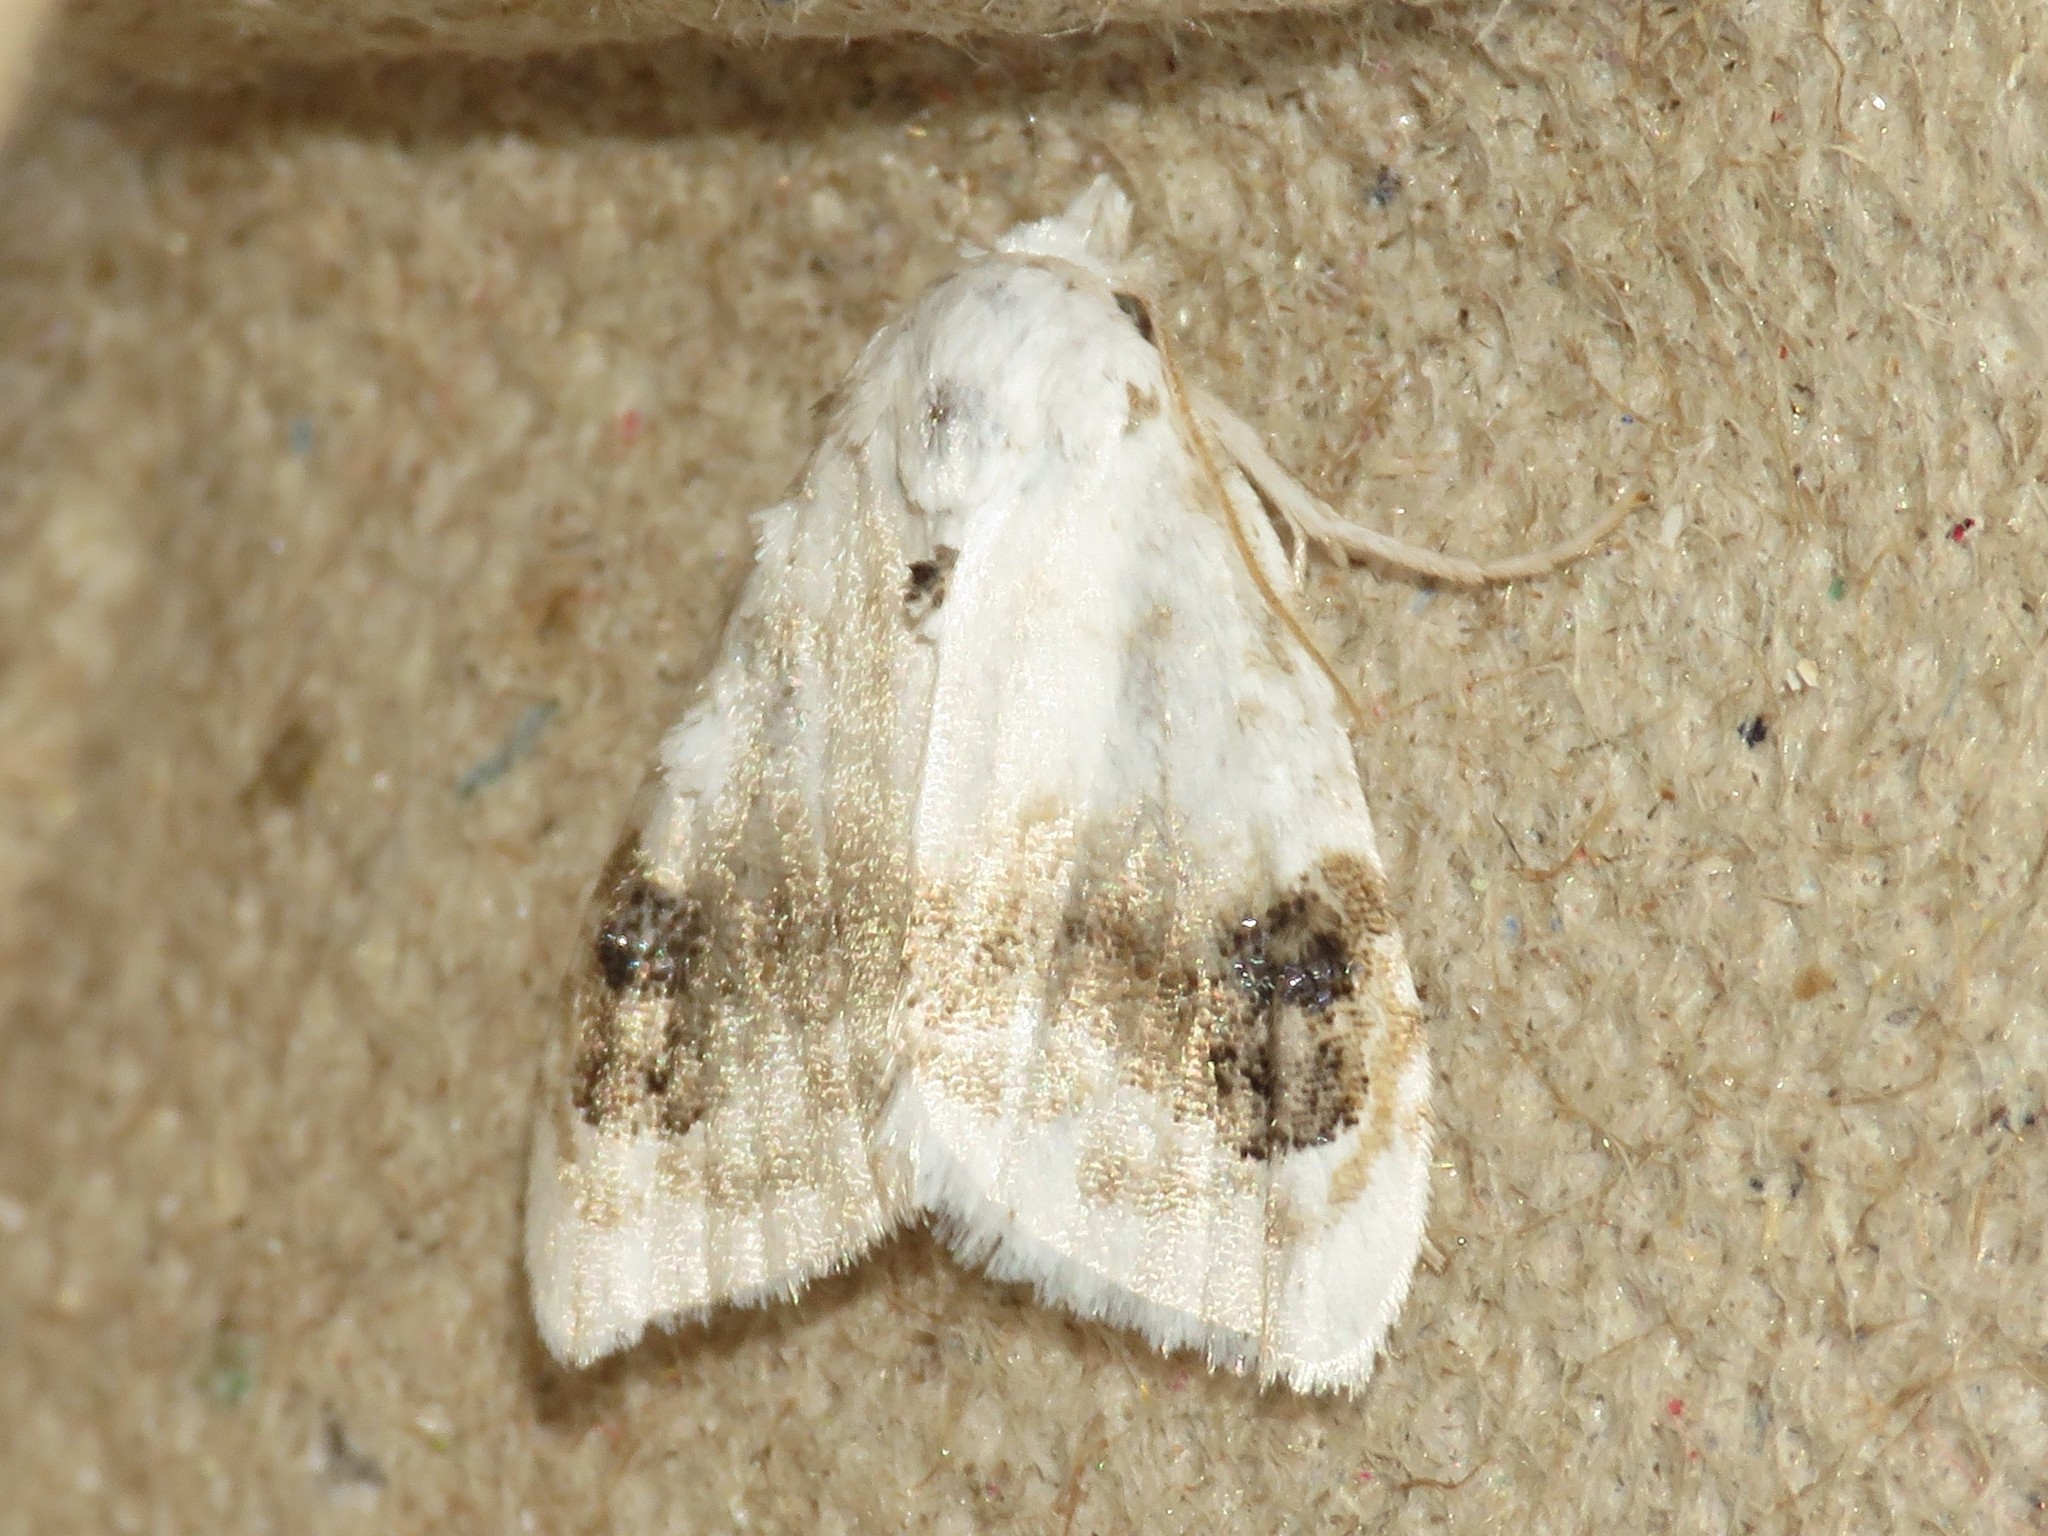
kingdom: Animalia
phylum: Arthropoda
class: Insecta
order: Lepidoptera
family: Nolidae
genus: Nola
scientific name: Nola cilicoides
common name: Blurry-patched nola moth
